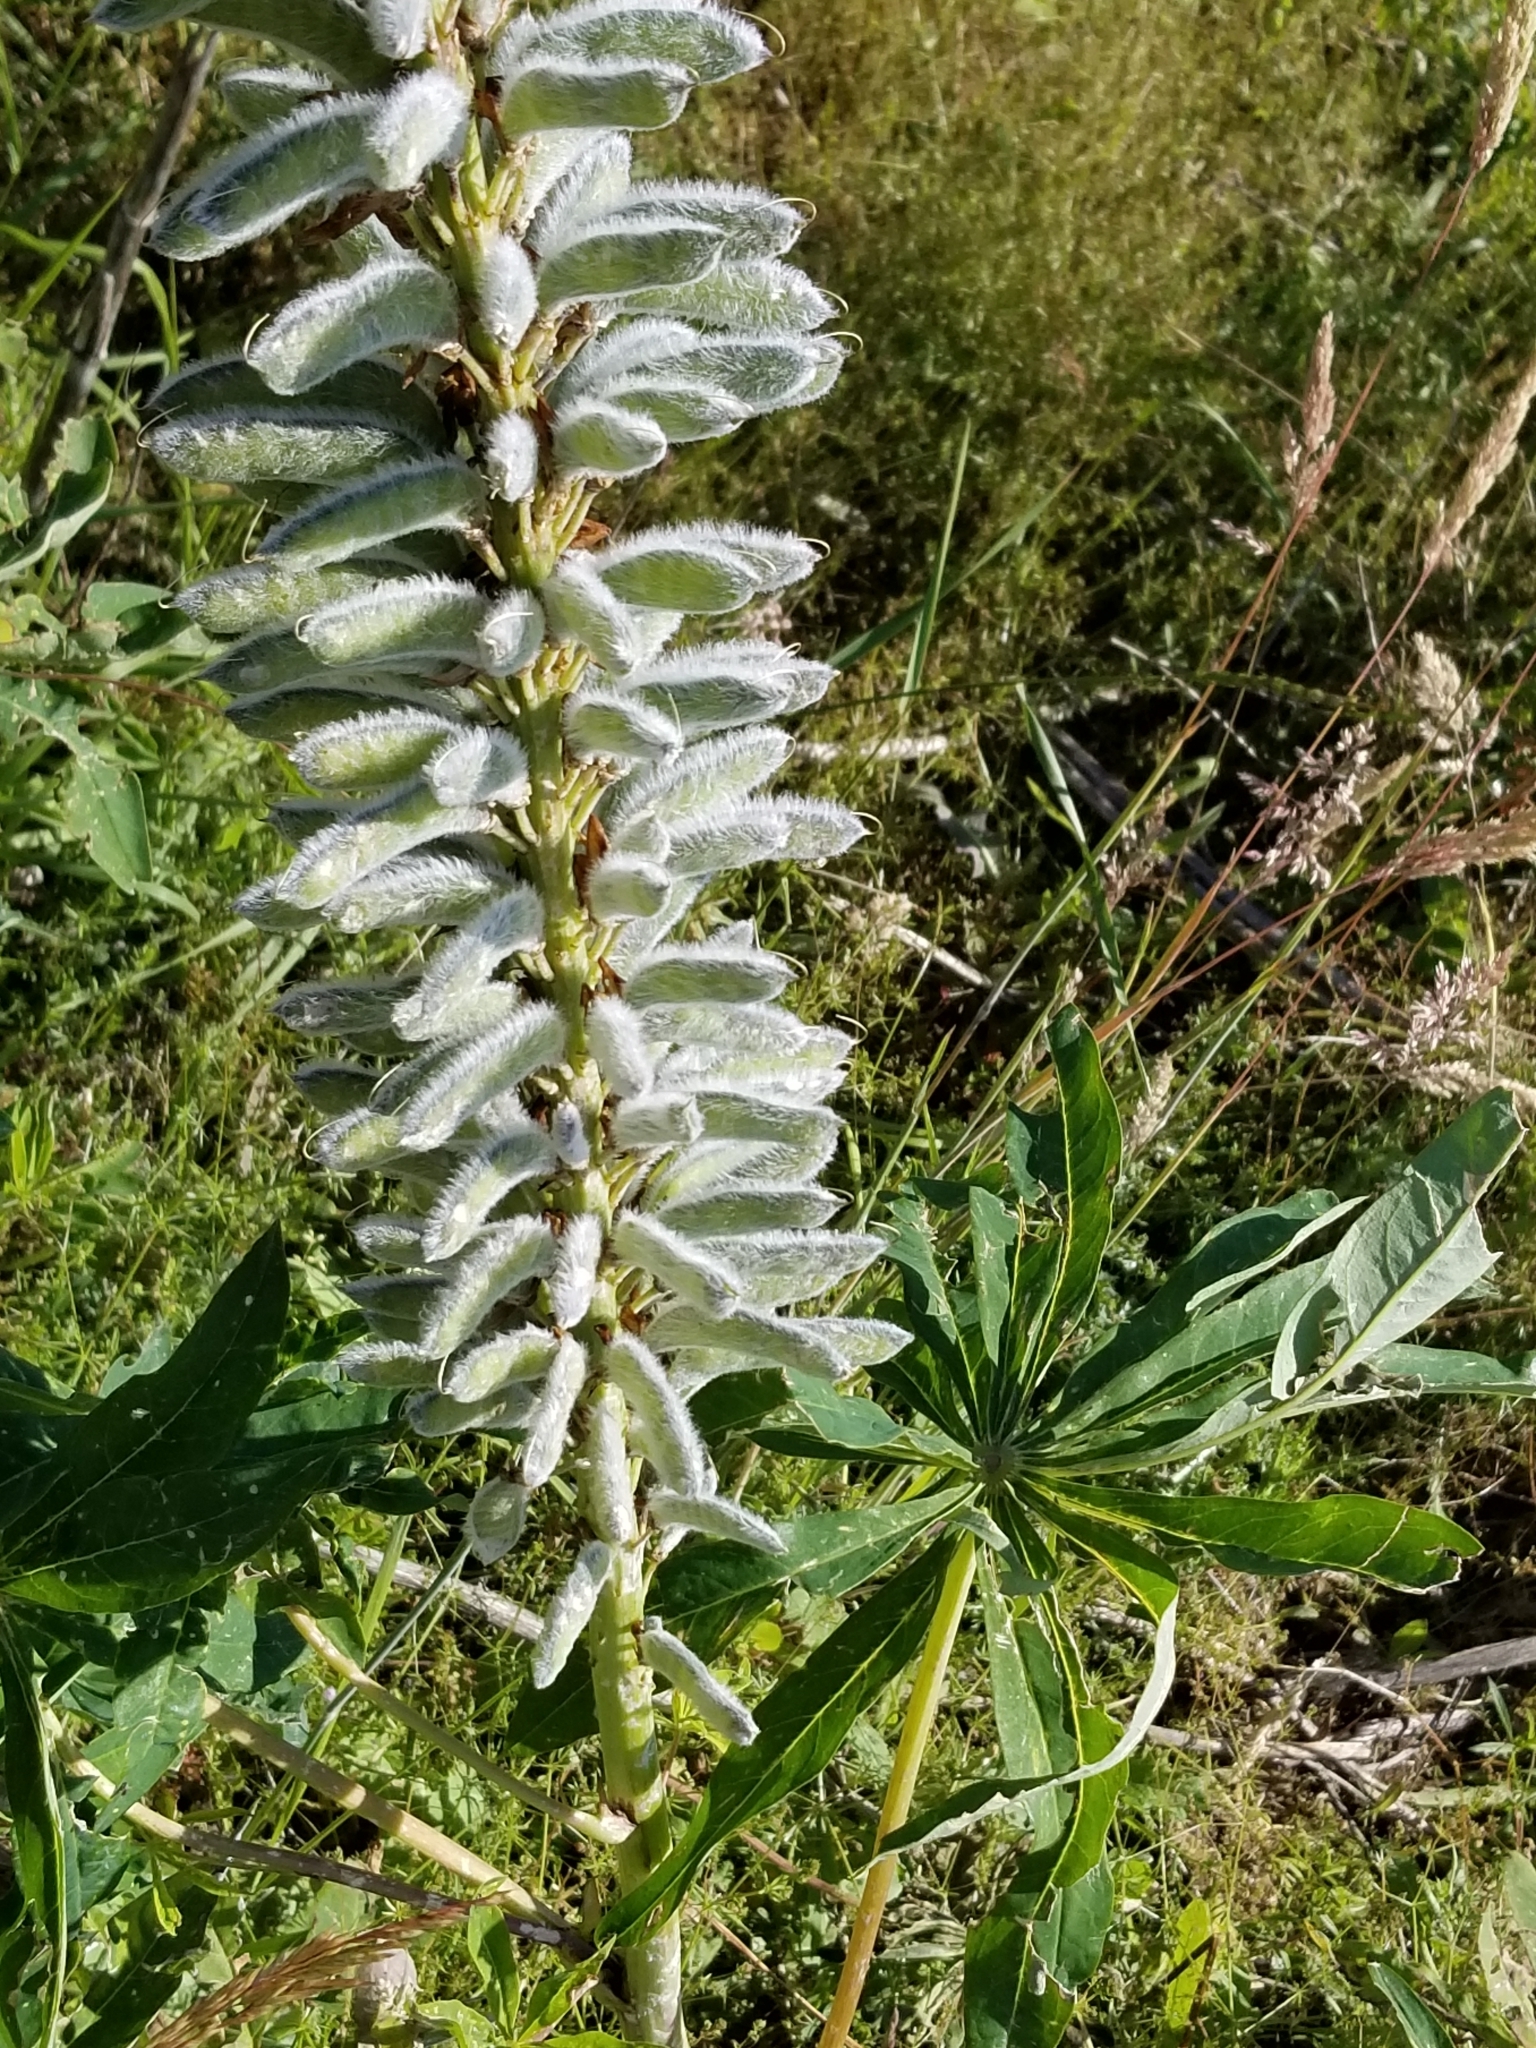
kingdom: Plantae
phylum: Tracheophyta
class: Magnoliopsida
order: Fabales
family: Fabaceae
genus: Lupinus
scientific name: Lupinus polyphyllus
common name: Garden lupin
